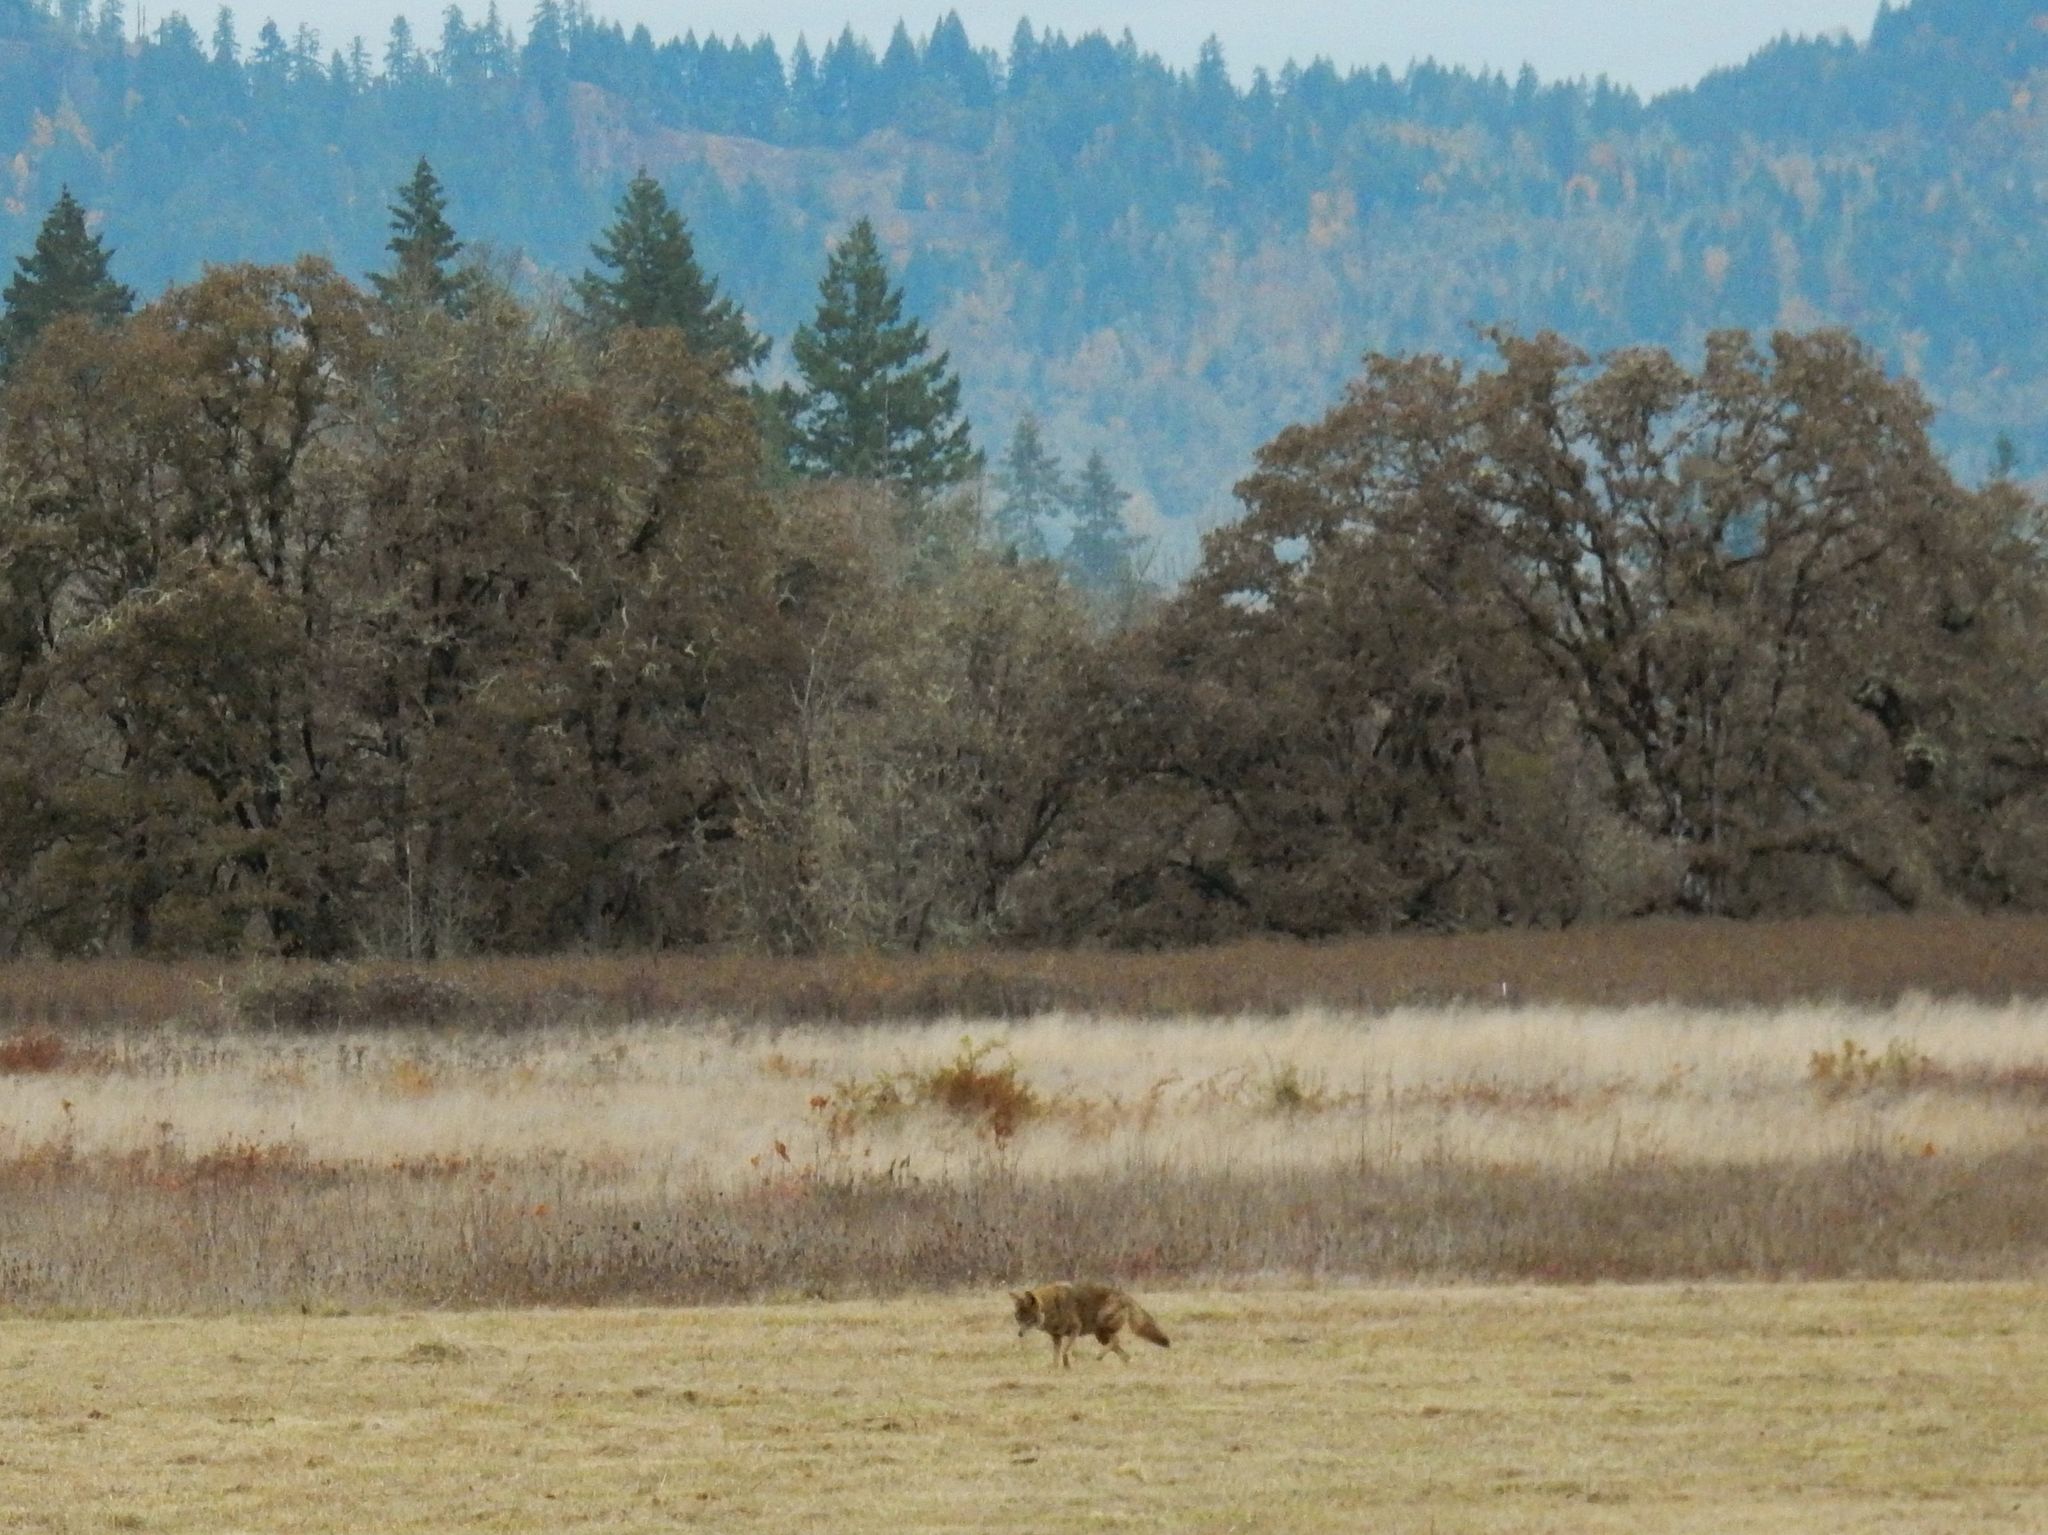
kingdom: Animalia
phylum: Chordata
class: Mammalia
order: Carnivora
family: Canidae
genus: Canis
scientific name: Canis latrans
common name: Coyote
